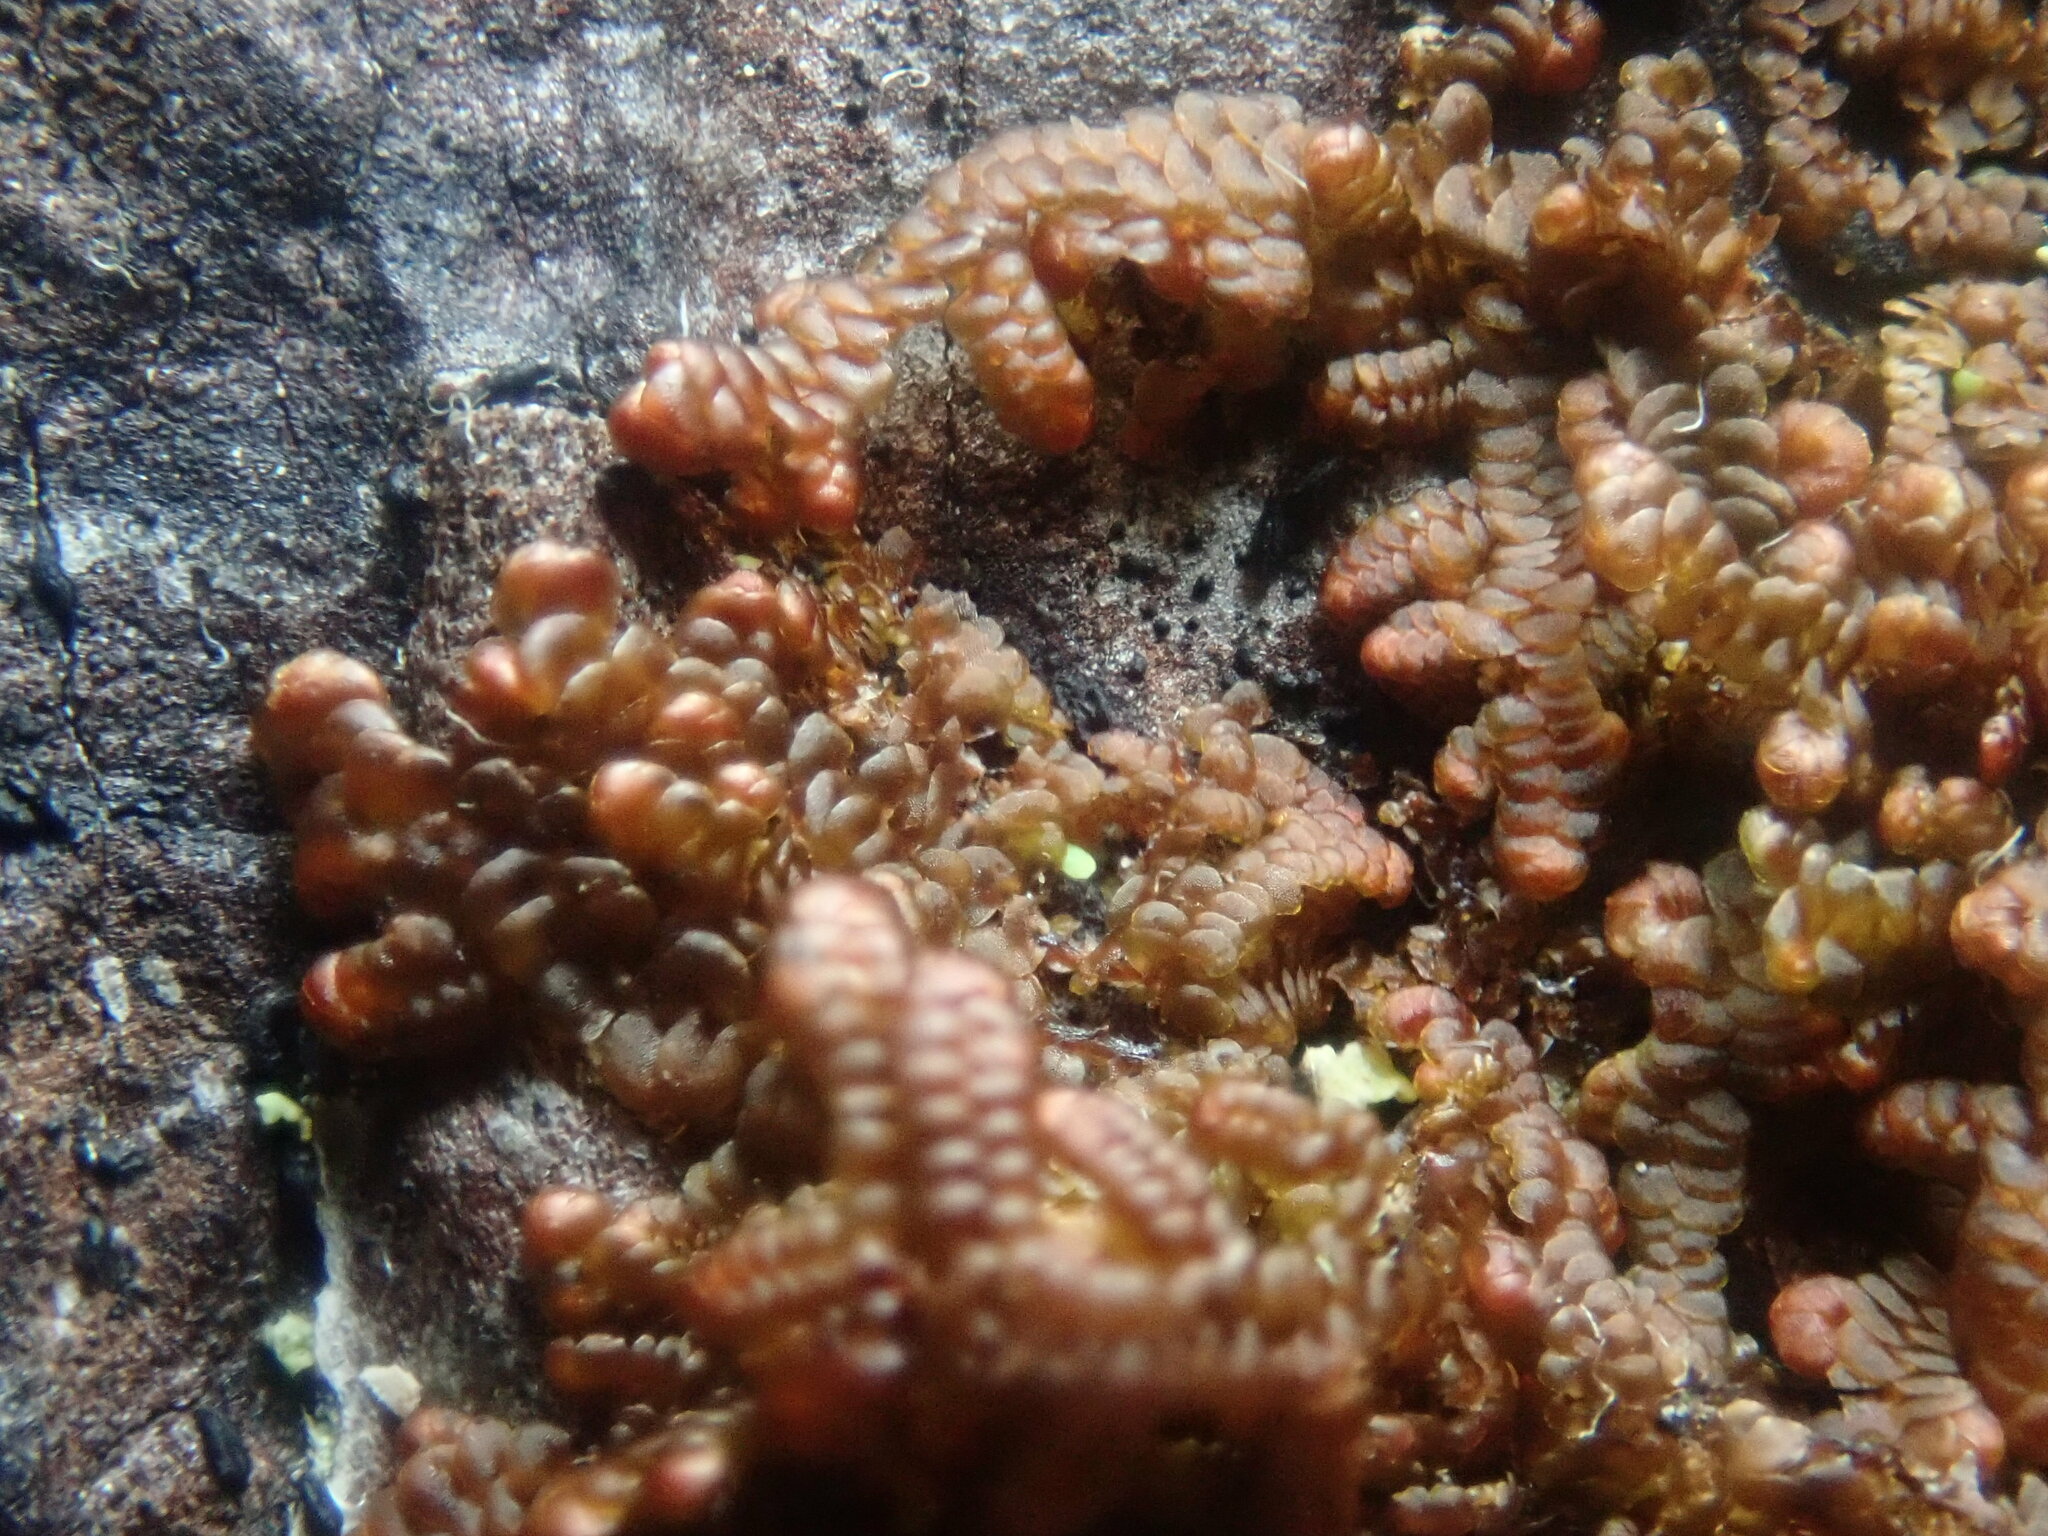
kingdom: Plantae
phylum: Marchantiophyta
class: Jungermanniopsida
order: Porellales
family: Frullaniaceae
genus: Frullania
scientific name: Frullania
